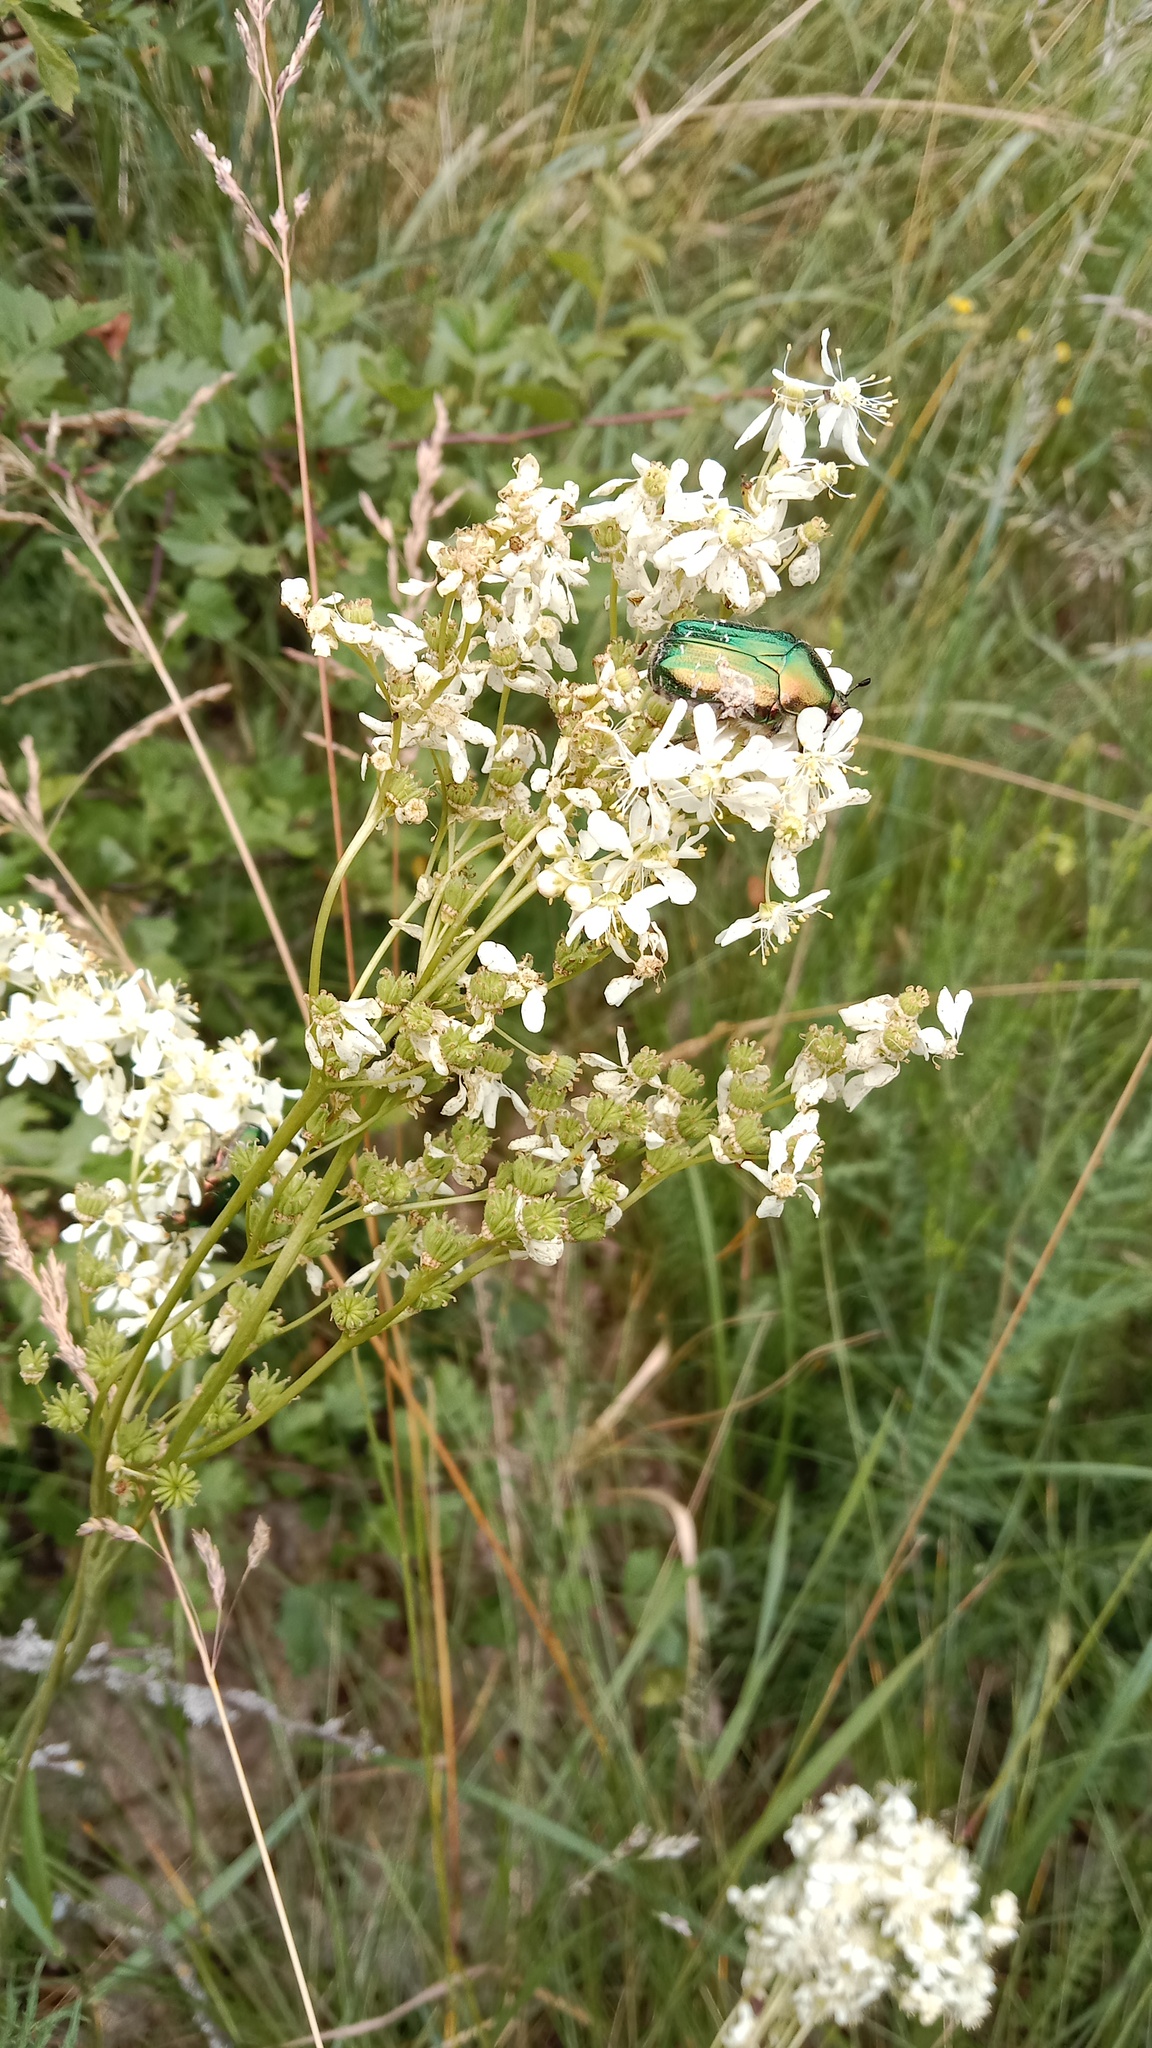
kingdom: Plantae
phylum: Tracheophyta
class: Magnoliopsida
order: Rosales
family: Rosaceae
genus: Filipendula
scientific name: Filipendula vulgaris
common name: Dropwort
